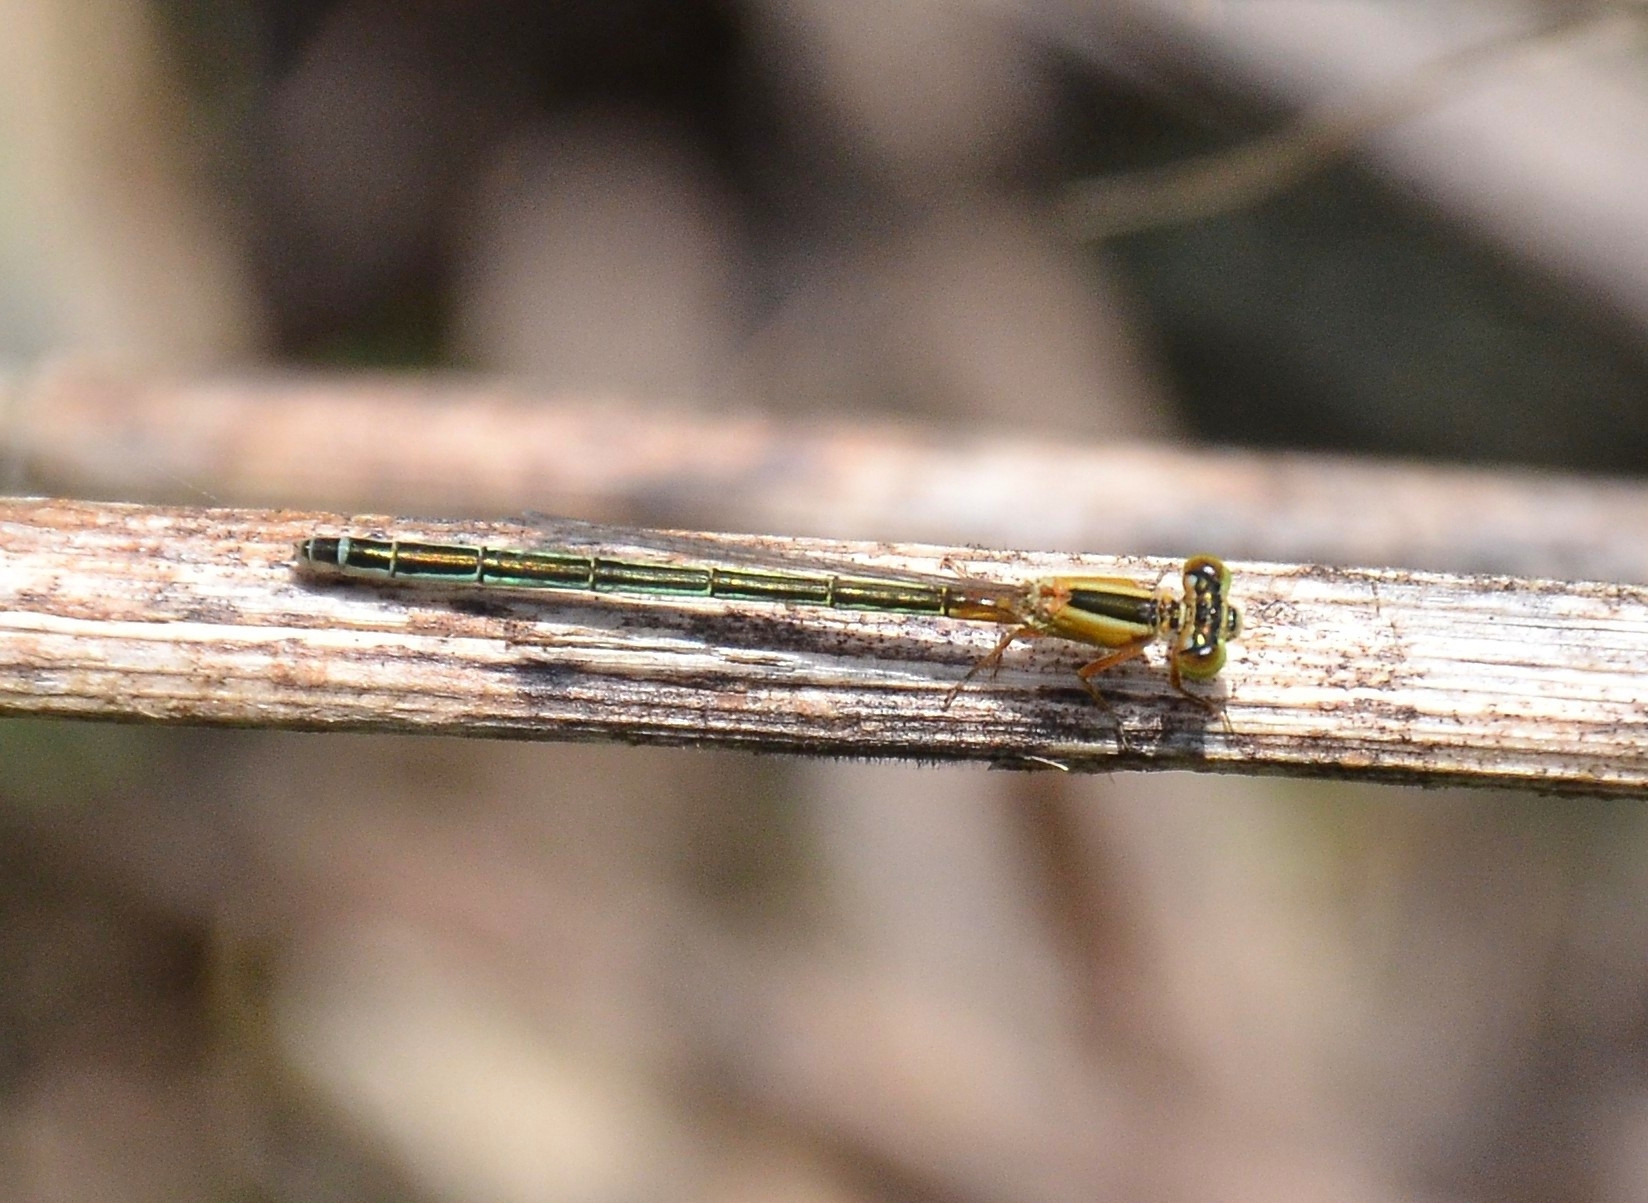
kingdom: Animalia
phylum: Arthropoda
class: Insecta
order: Odonata
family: Coenagrionidae
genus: Ischnura
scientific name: Ischnura senegalensis
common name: Tropical bluetail
